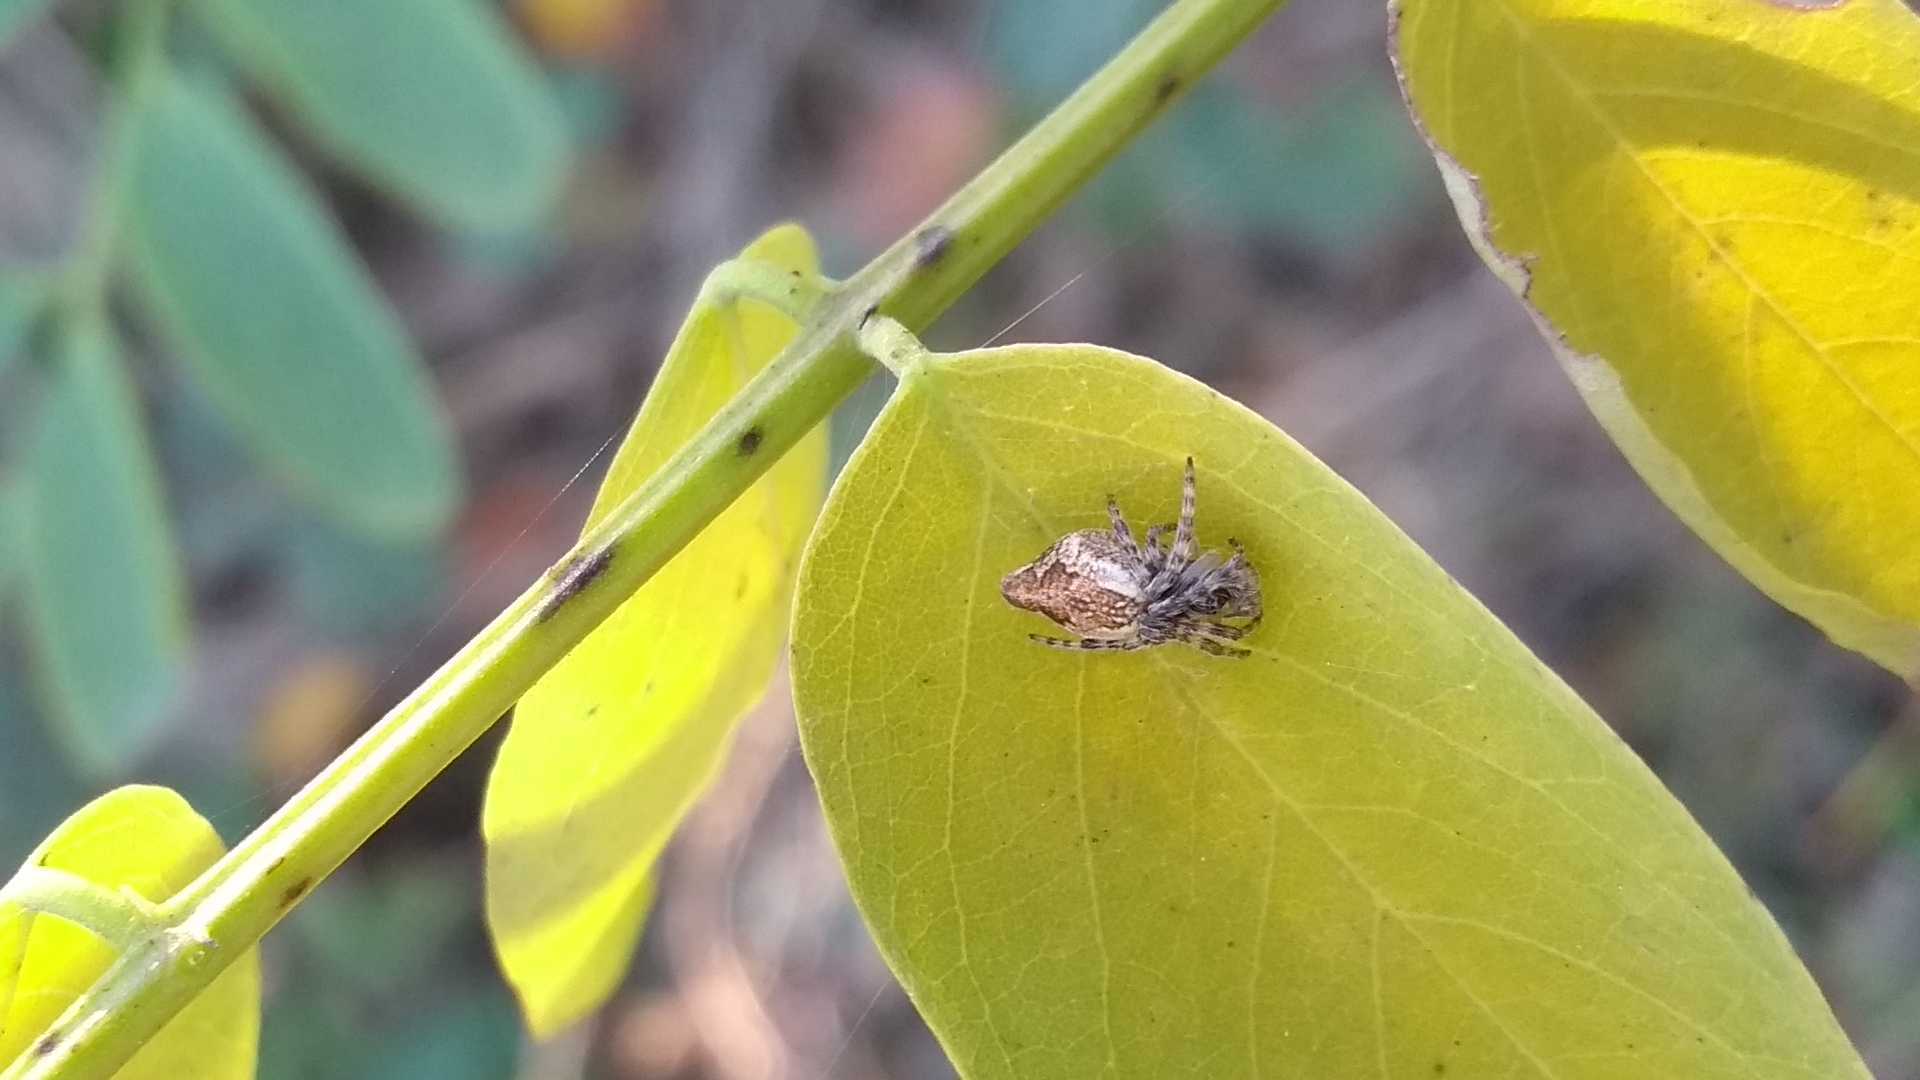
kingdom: Animalia
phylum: Arthropoda
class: Arachnida
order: Araneae
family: Araneidae
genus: Cyclosa
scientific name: Cyclosa conica
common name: Conical trashline orbweaver
